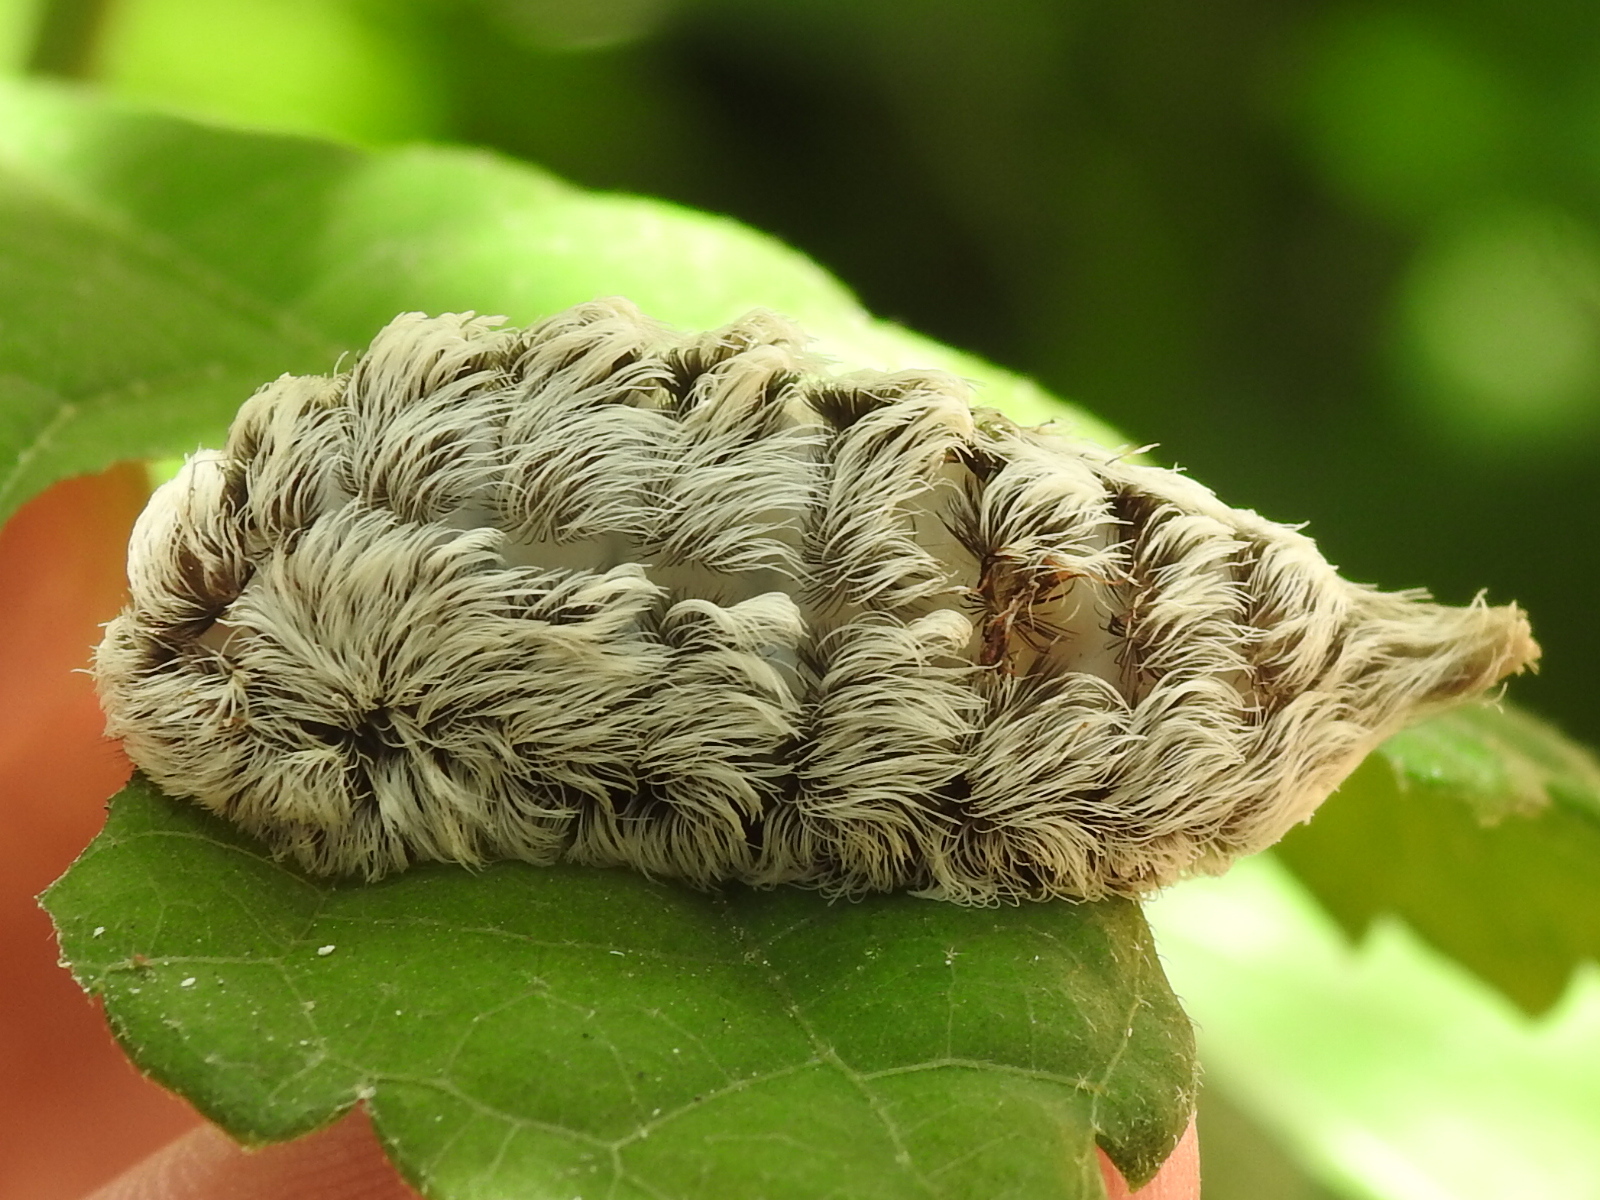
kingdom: Animalia
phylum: Arthropoda
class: Insecta
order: Lepidoptera
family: Megalopygidae
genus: Megalopyge
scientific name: Megalopyge opercularis
